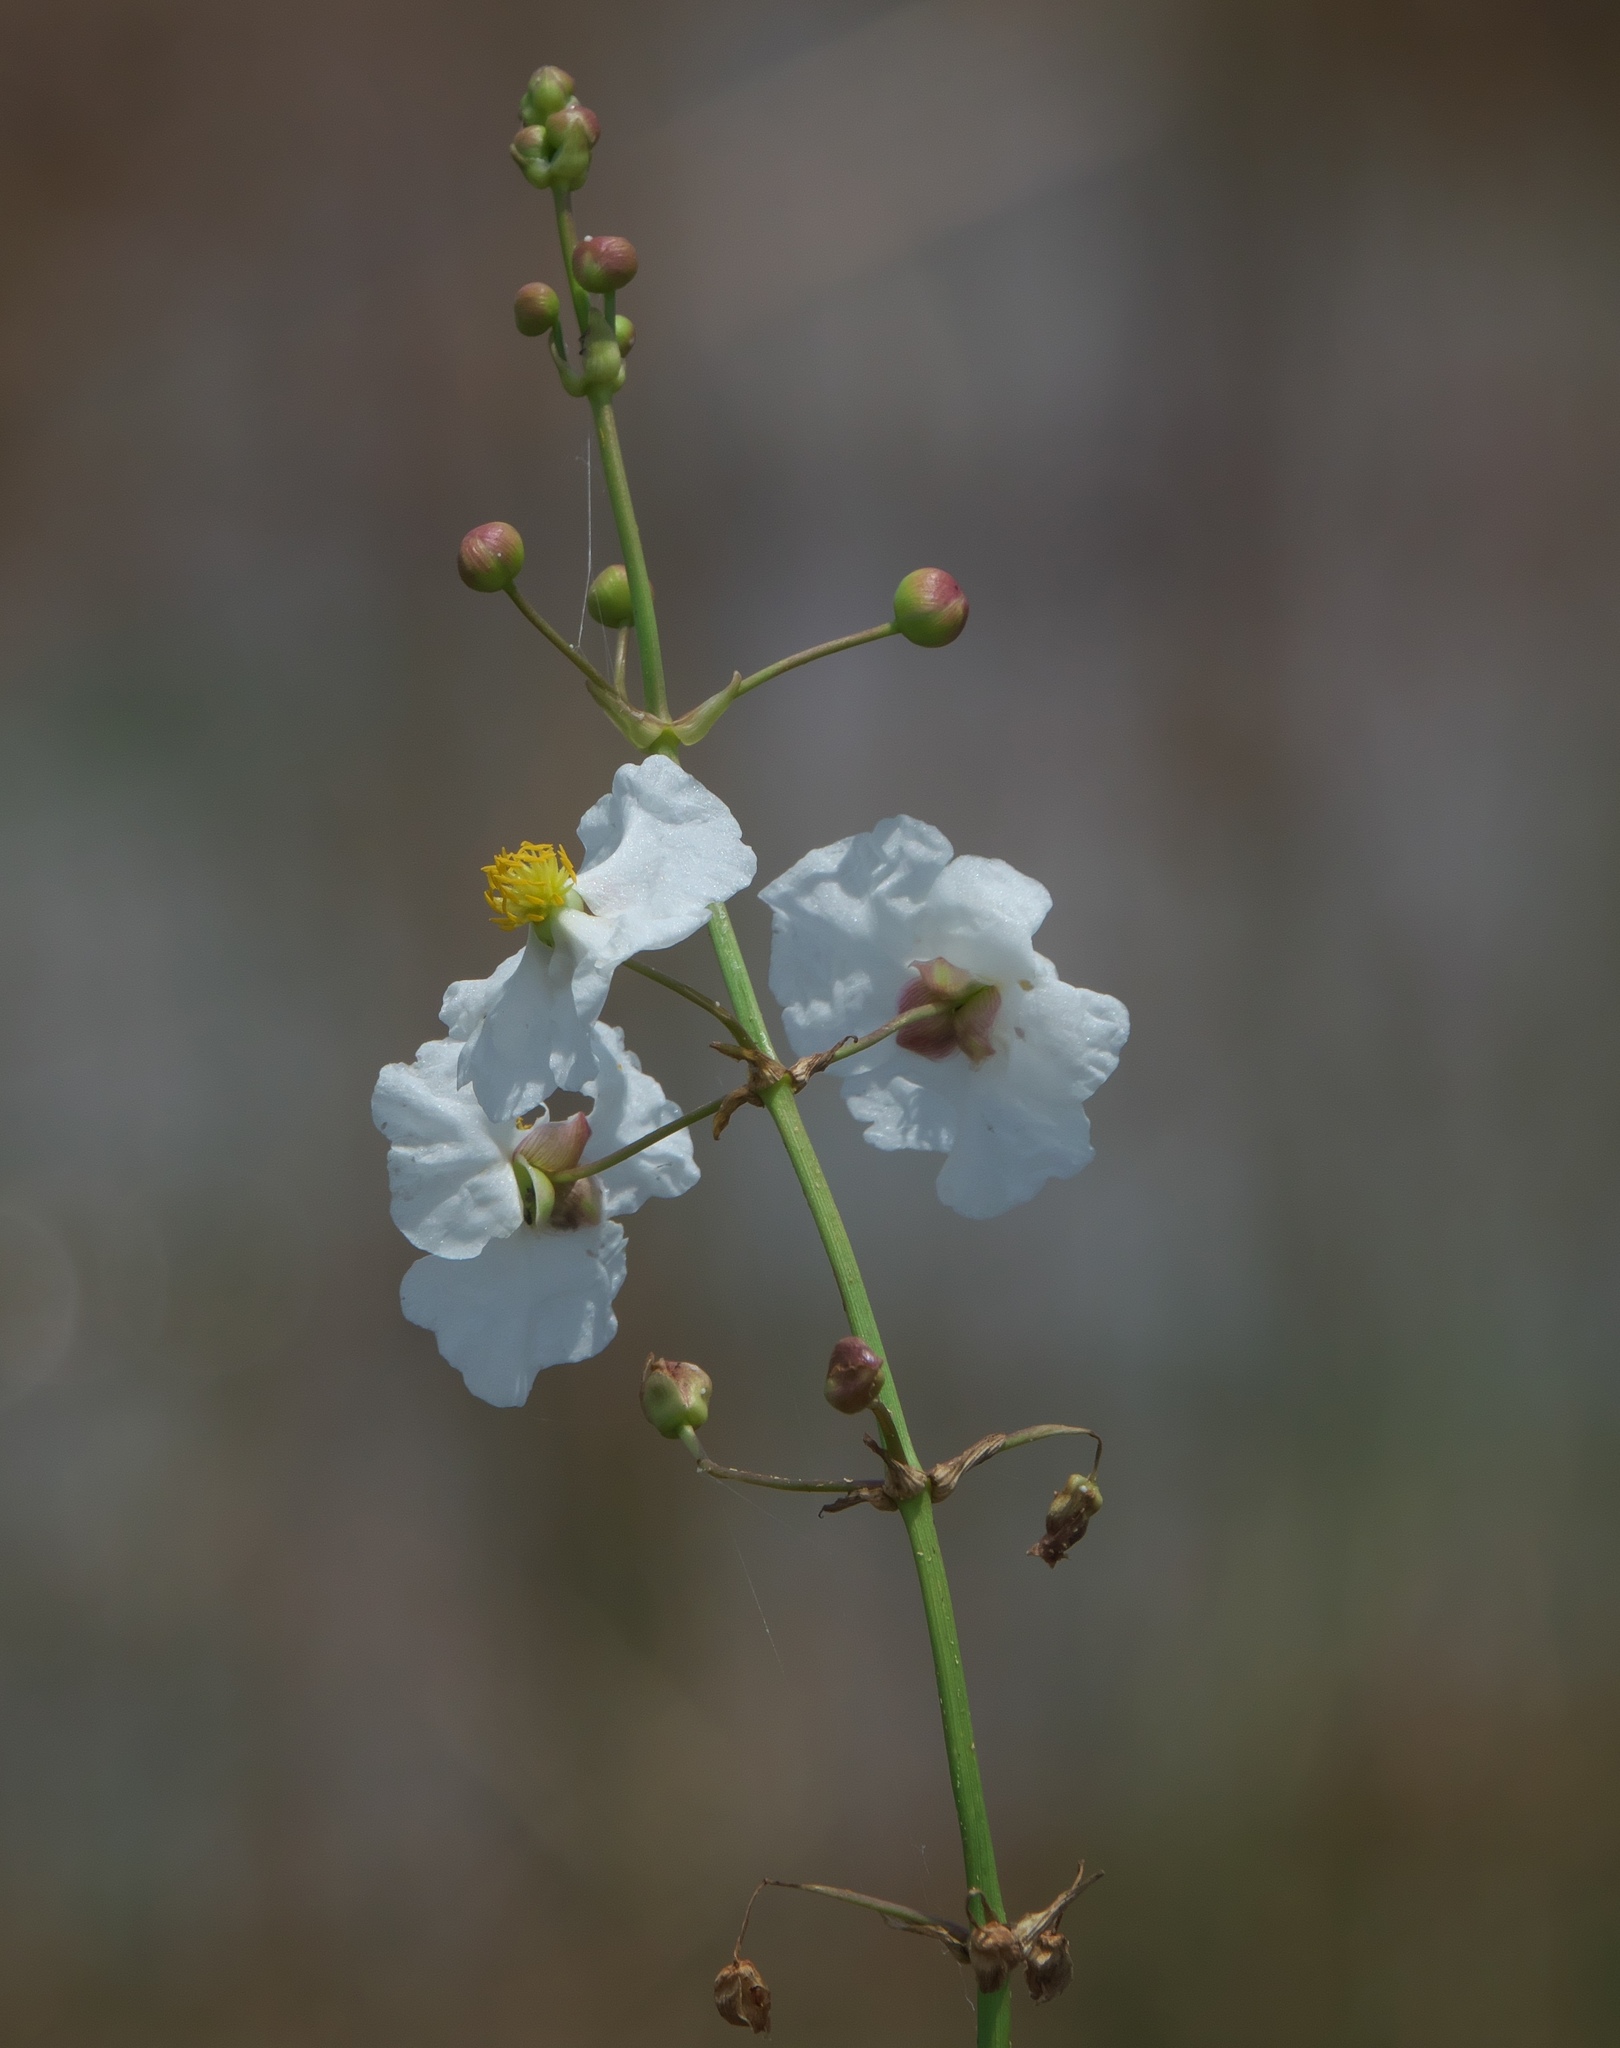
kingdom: Plantae
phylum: Tracheophyta
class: Liliopsida
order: Alismatales
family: Alismataceae
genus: Sagittaria
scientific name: Sagittaria lancifolia
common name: Lance-leaf arrowhead
